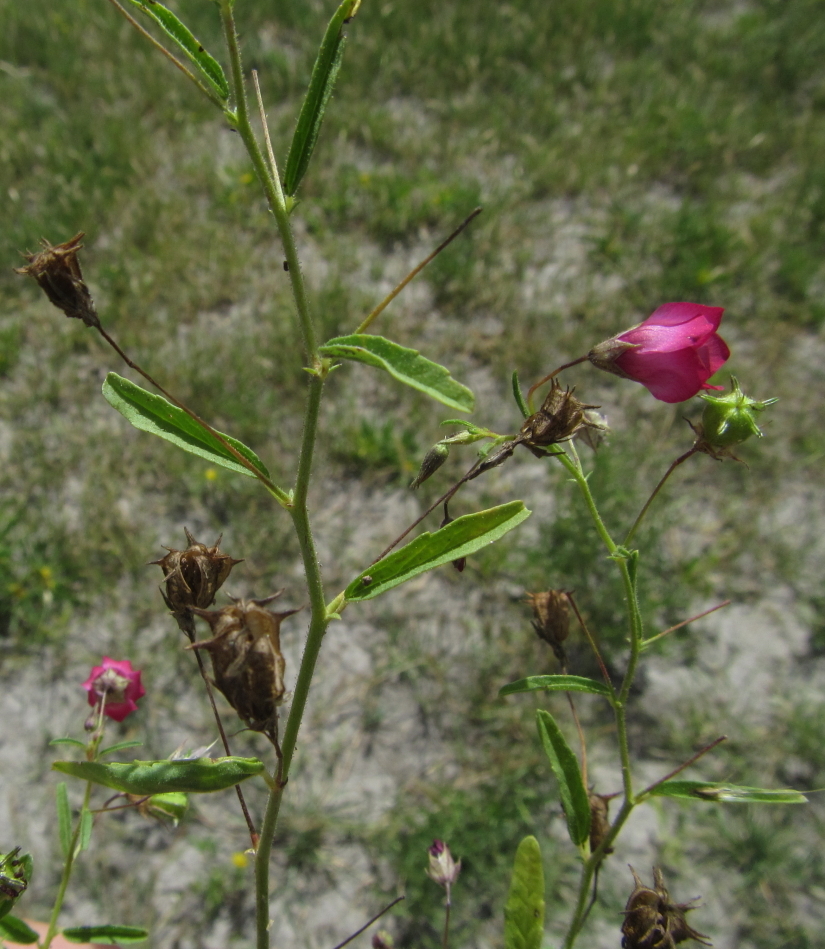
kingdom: Plantae
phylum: Tracheophyta
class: Magnoliopsida
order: Malvales
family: Malvaceae
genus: Hermannia
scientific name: Hermannia modesta
